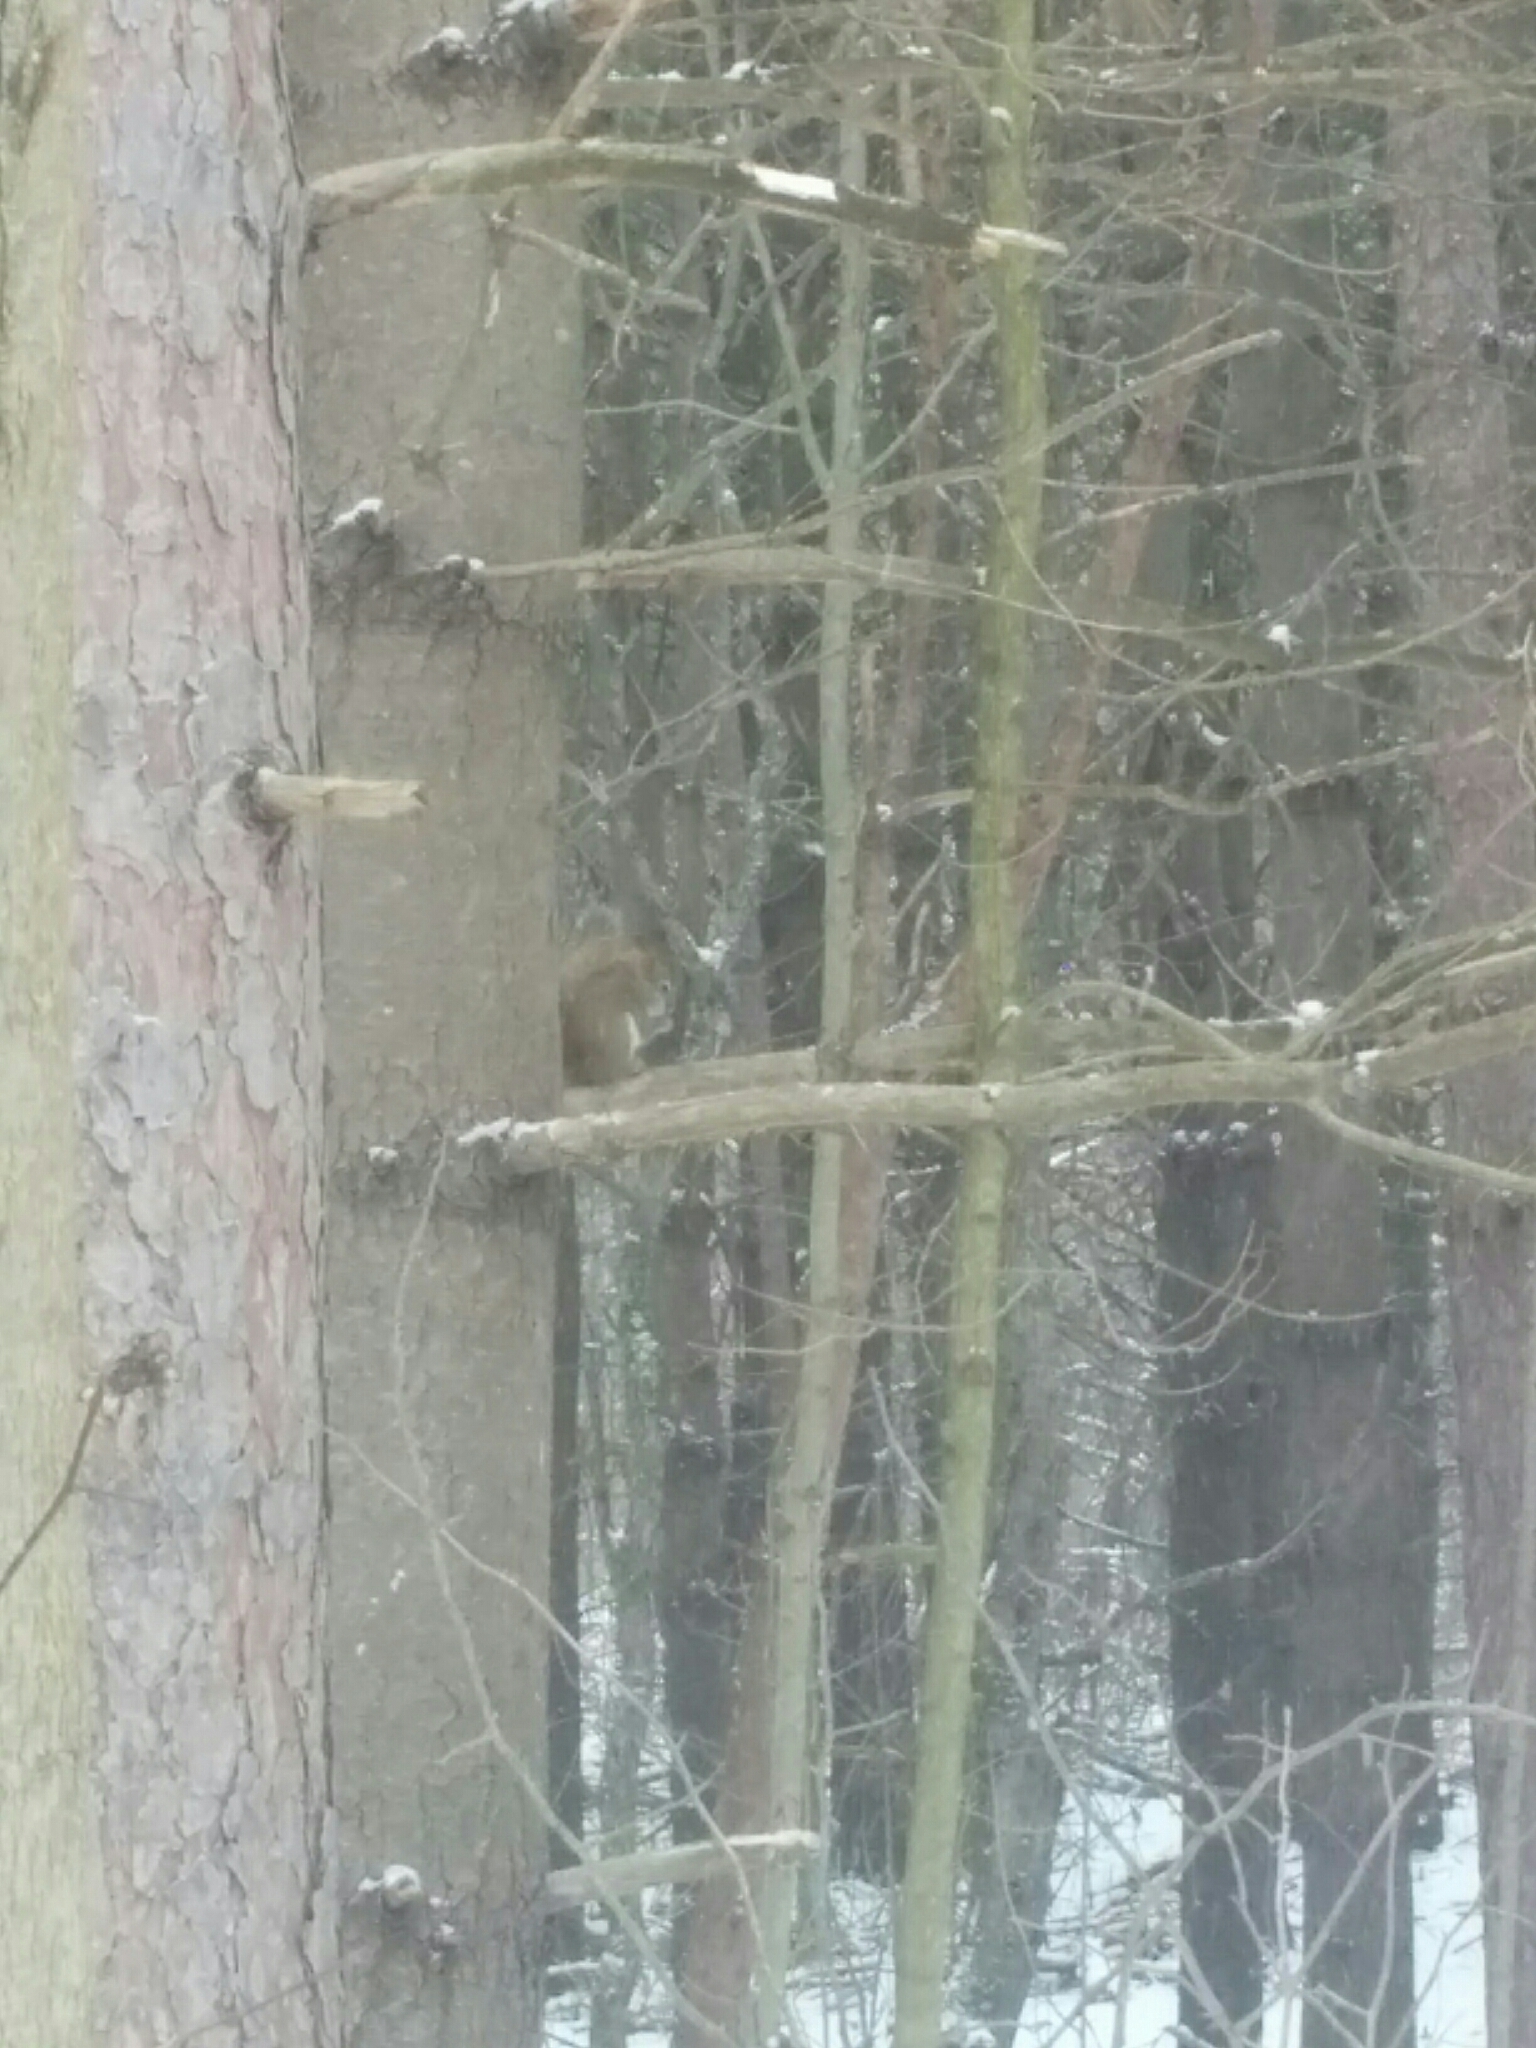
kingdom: Animalia
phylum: Chordata
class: Mammalia
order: Rodentia
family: Sciuridae
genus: Tamiasciurus
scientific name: Tamiasciurus hudsonicus
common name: Red squirrel
